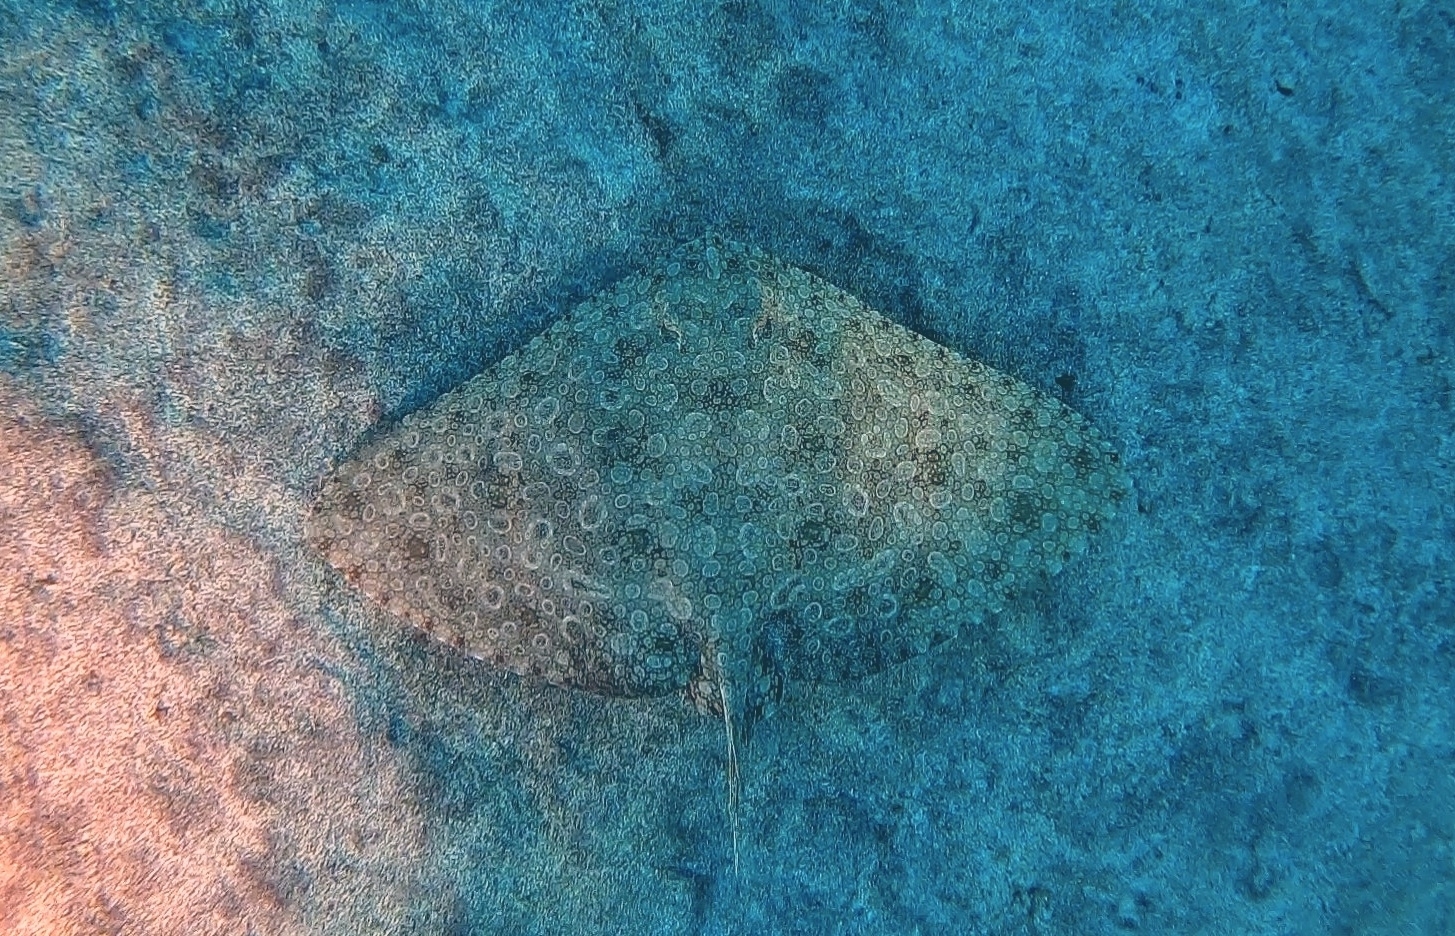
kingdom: Animalia
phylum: Chordata
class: Elasmobranchii
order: Myliobatiformes
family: Gymnuridae
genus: Gymnura
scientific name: Gymnura altavela
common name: Spiny butterfly ray
